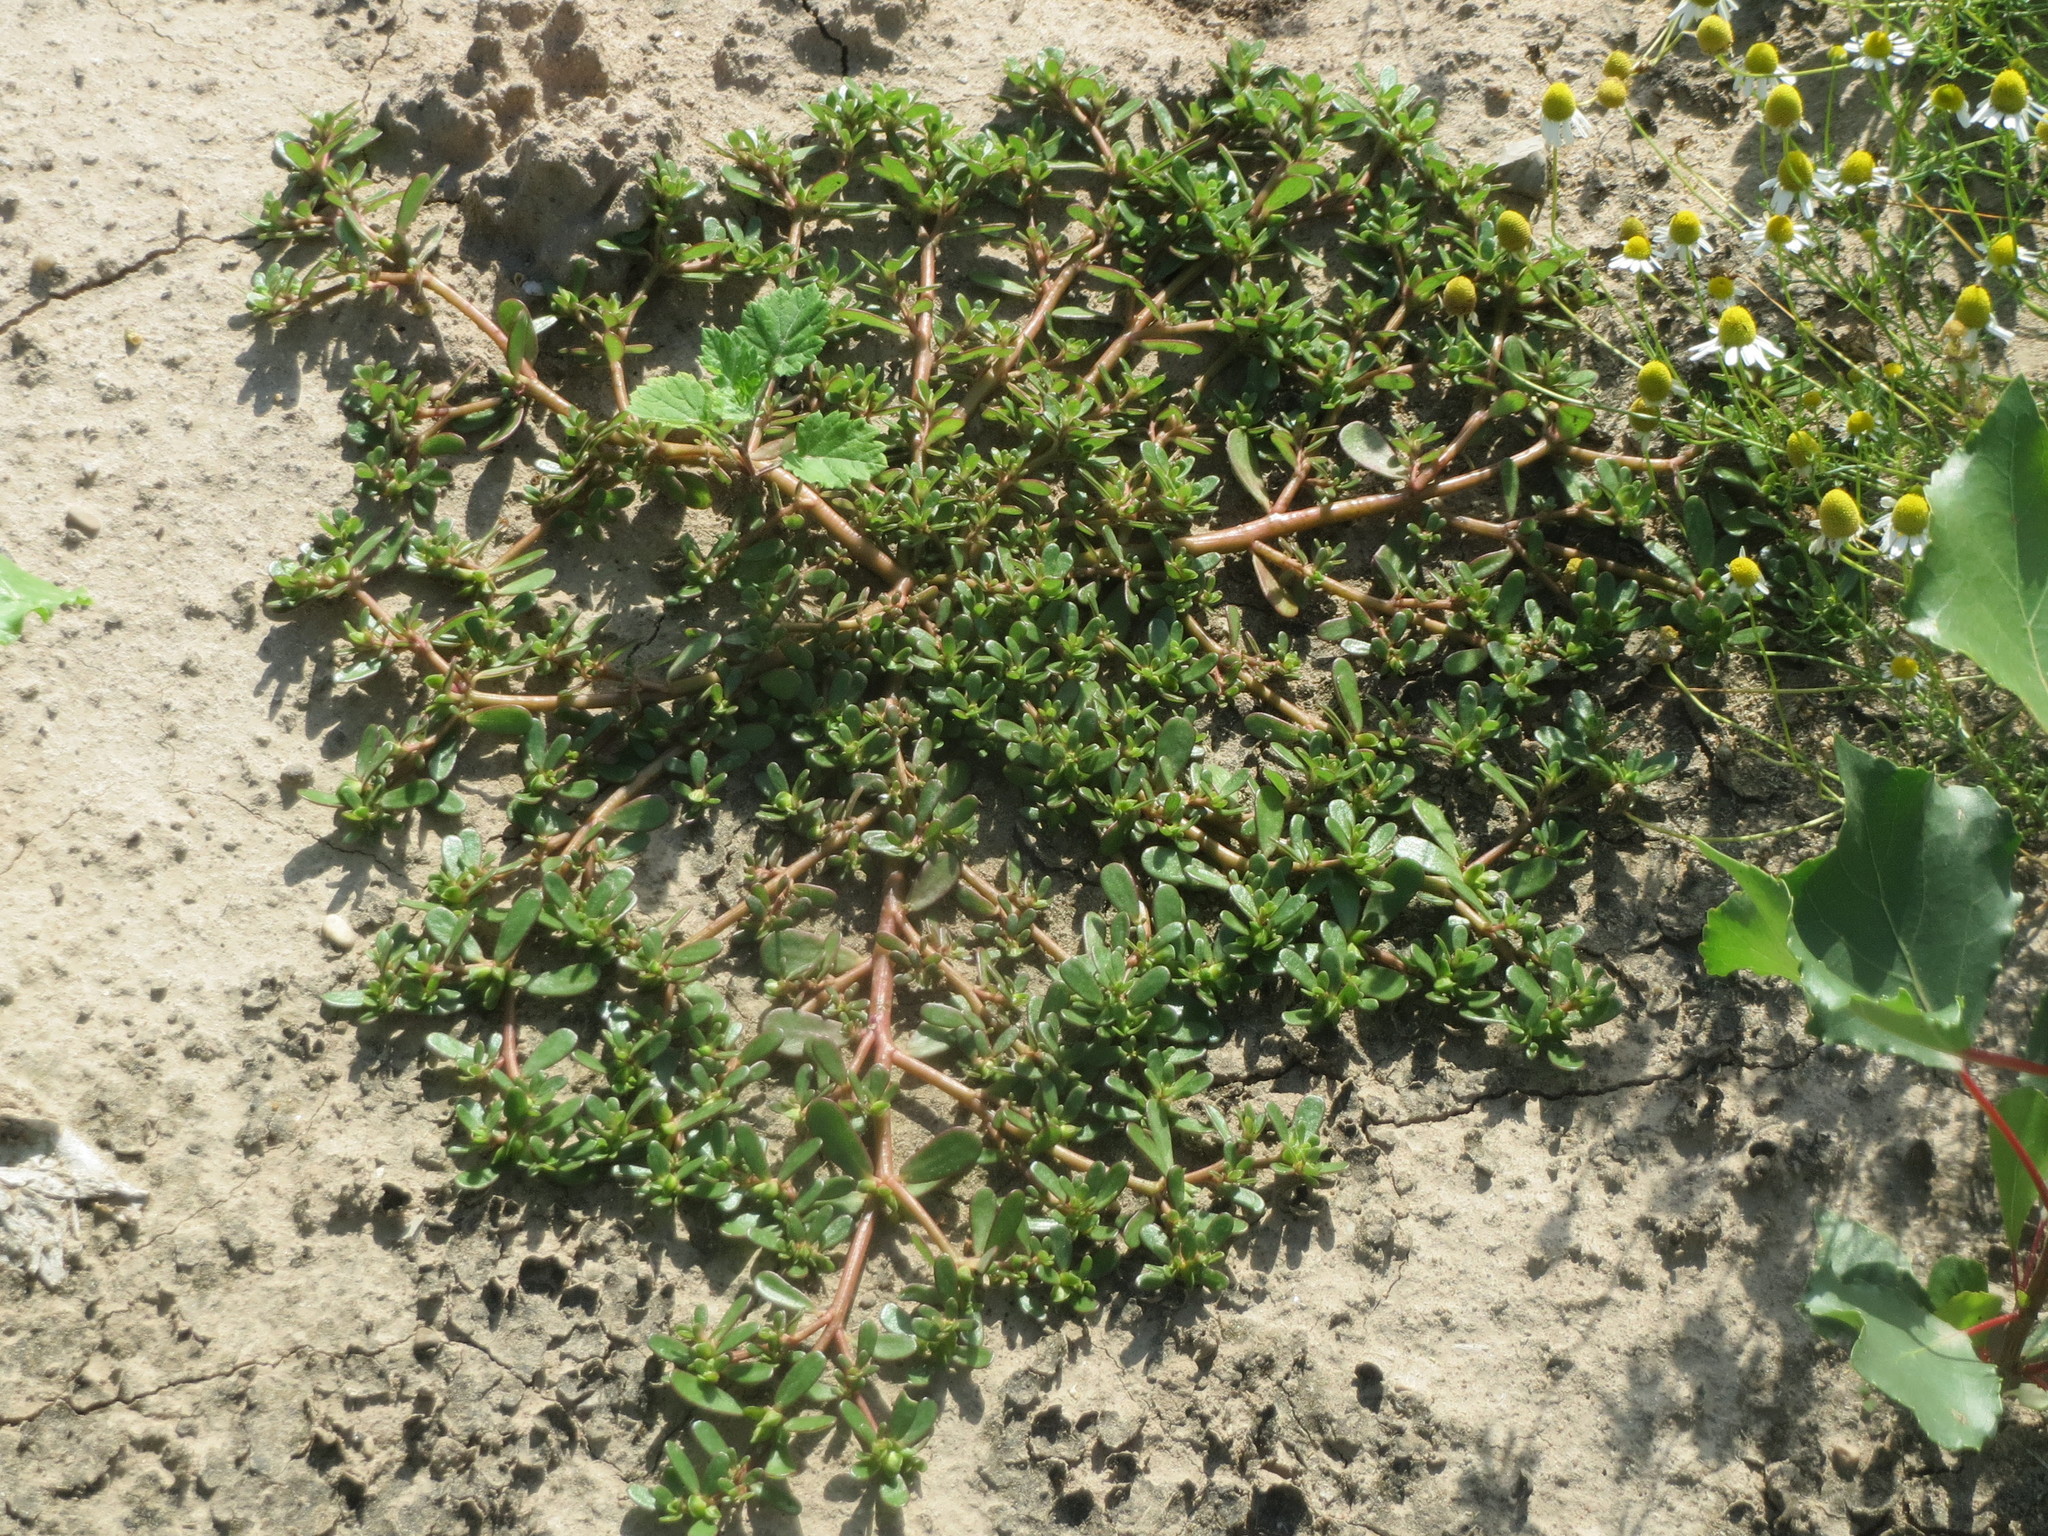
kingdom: Plantae
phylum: Tracheophyta
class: Magnoliopsida
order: Caryophyllales
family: Portulacaceae
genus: Portulaca
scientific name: Portulaca oleracea
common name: Common purslane
